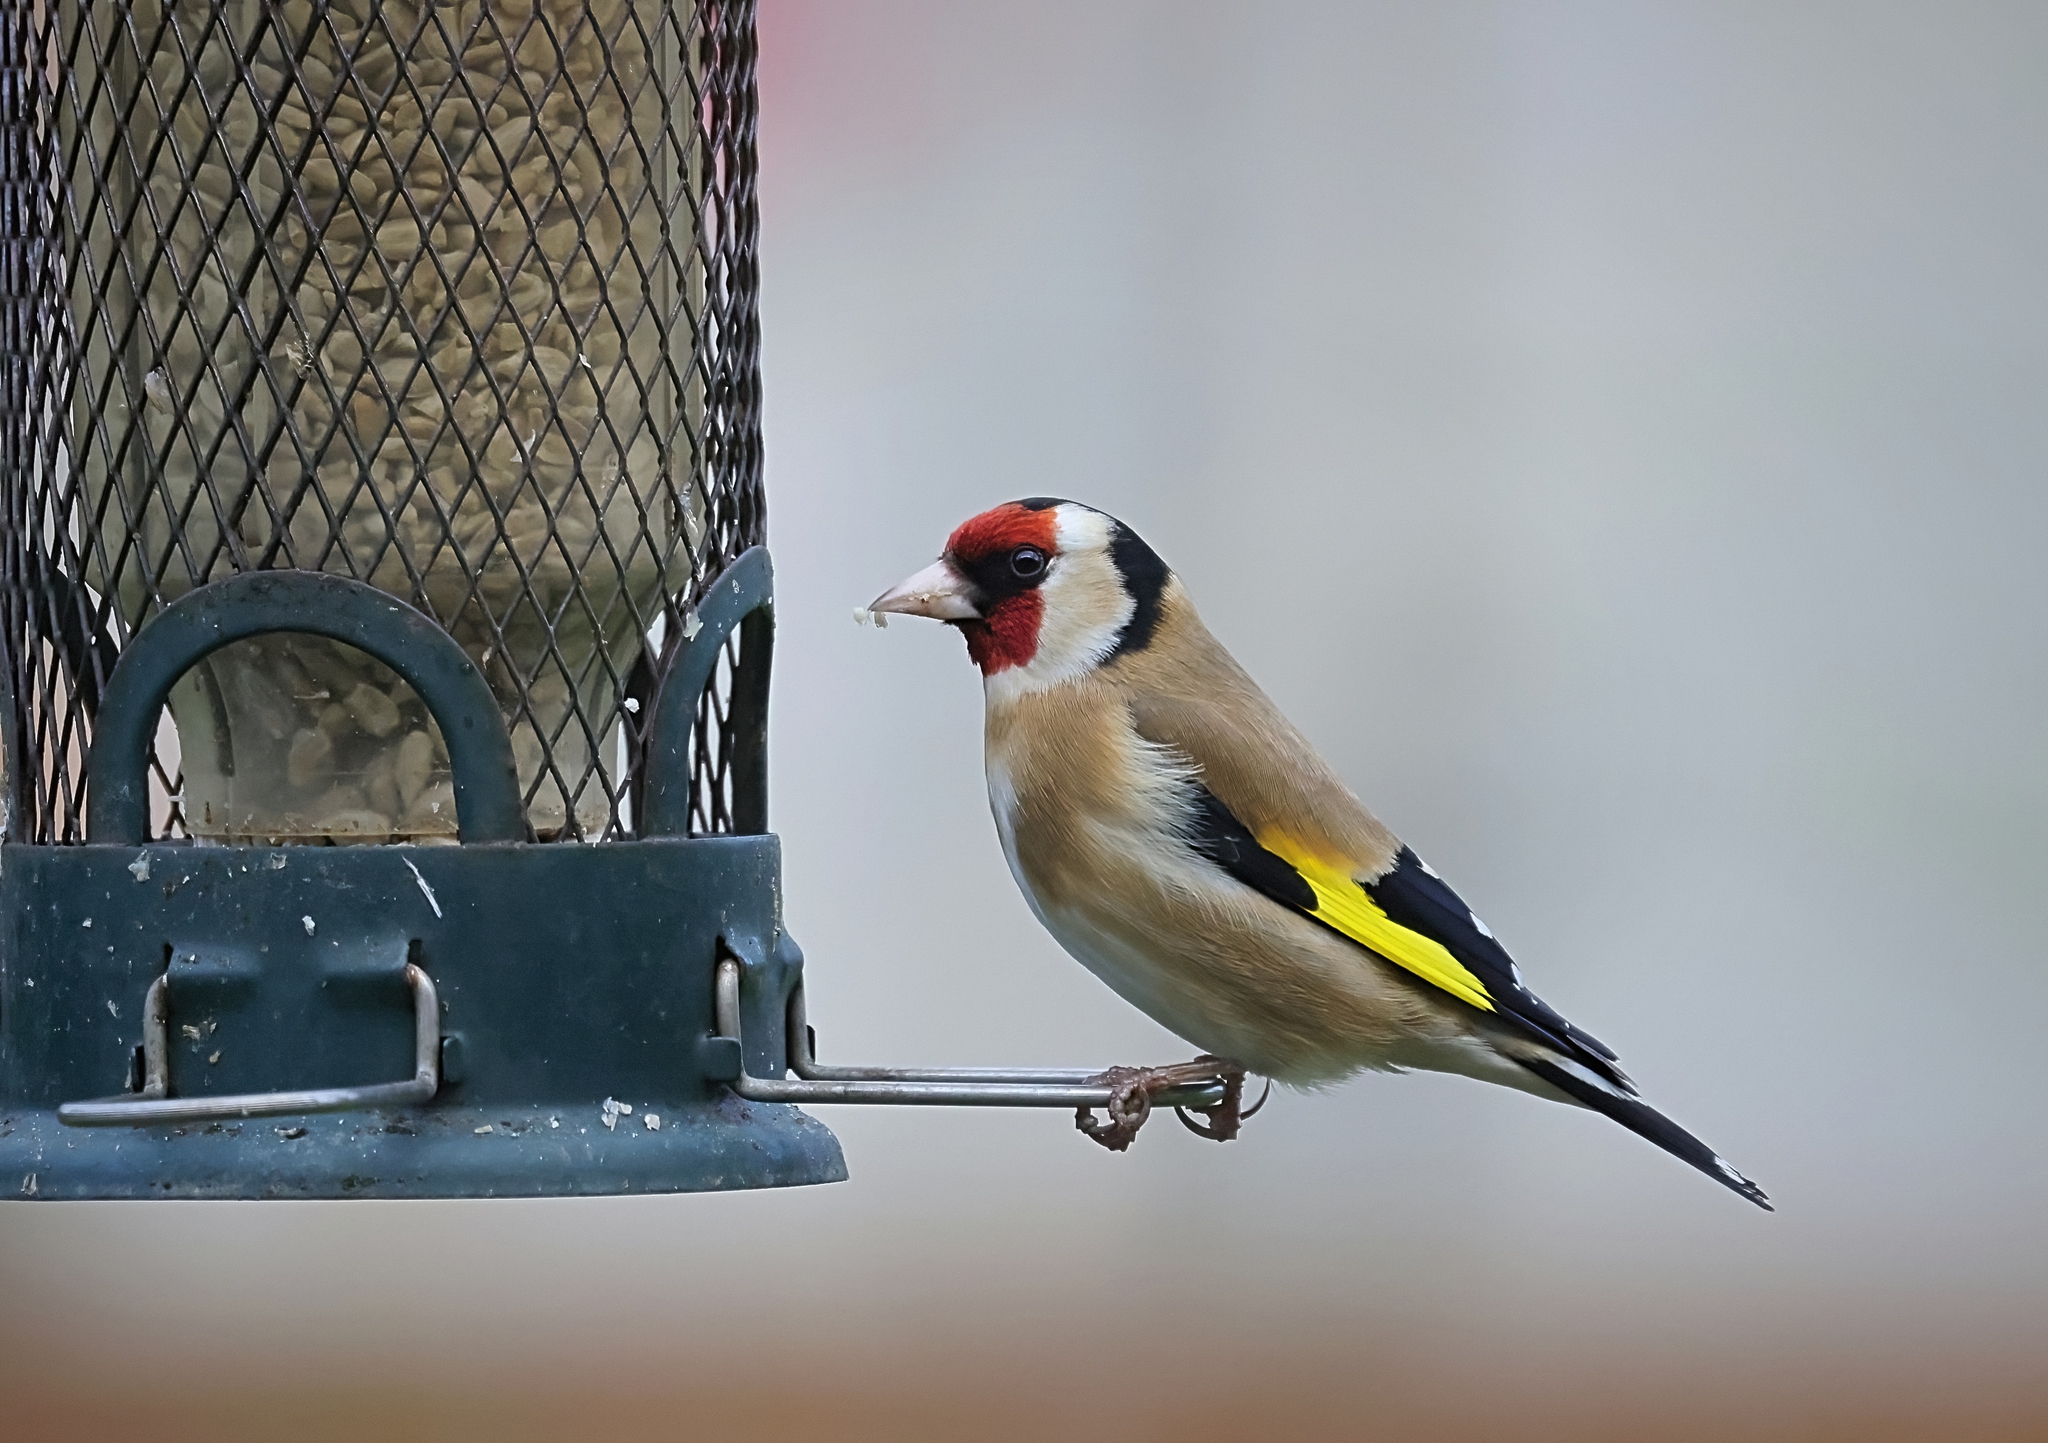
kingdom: Animalia
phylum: Chordata
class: Aves
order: Passeriformes
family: Fringillidae
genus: Carduelis
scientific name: Carduelis carduelis
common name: European goldfinch
